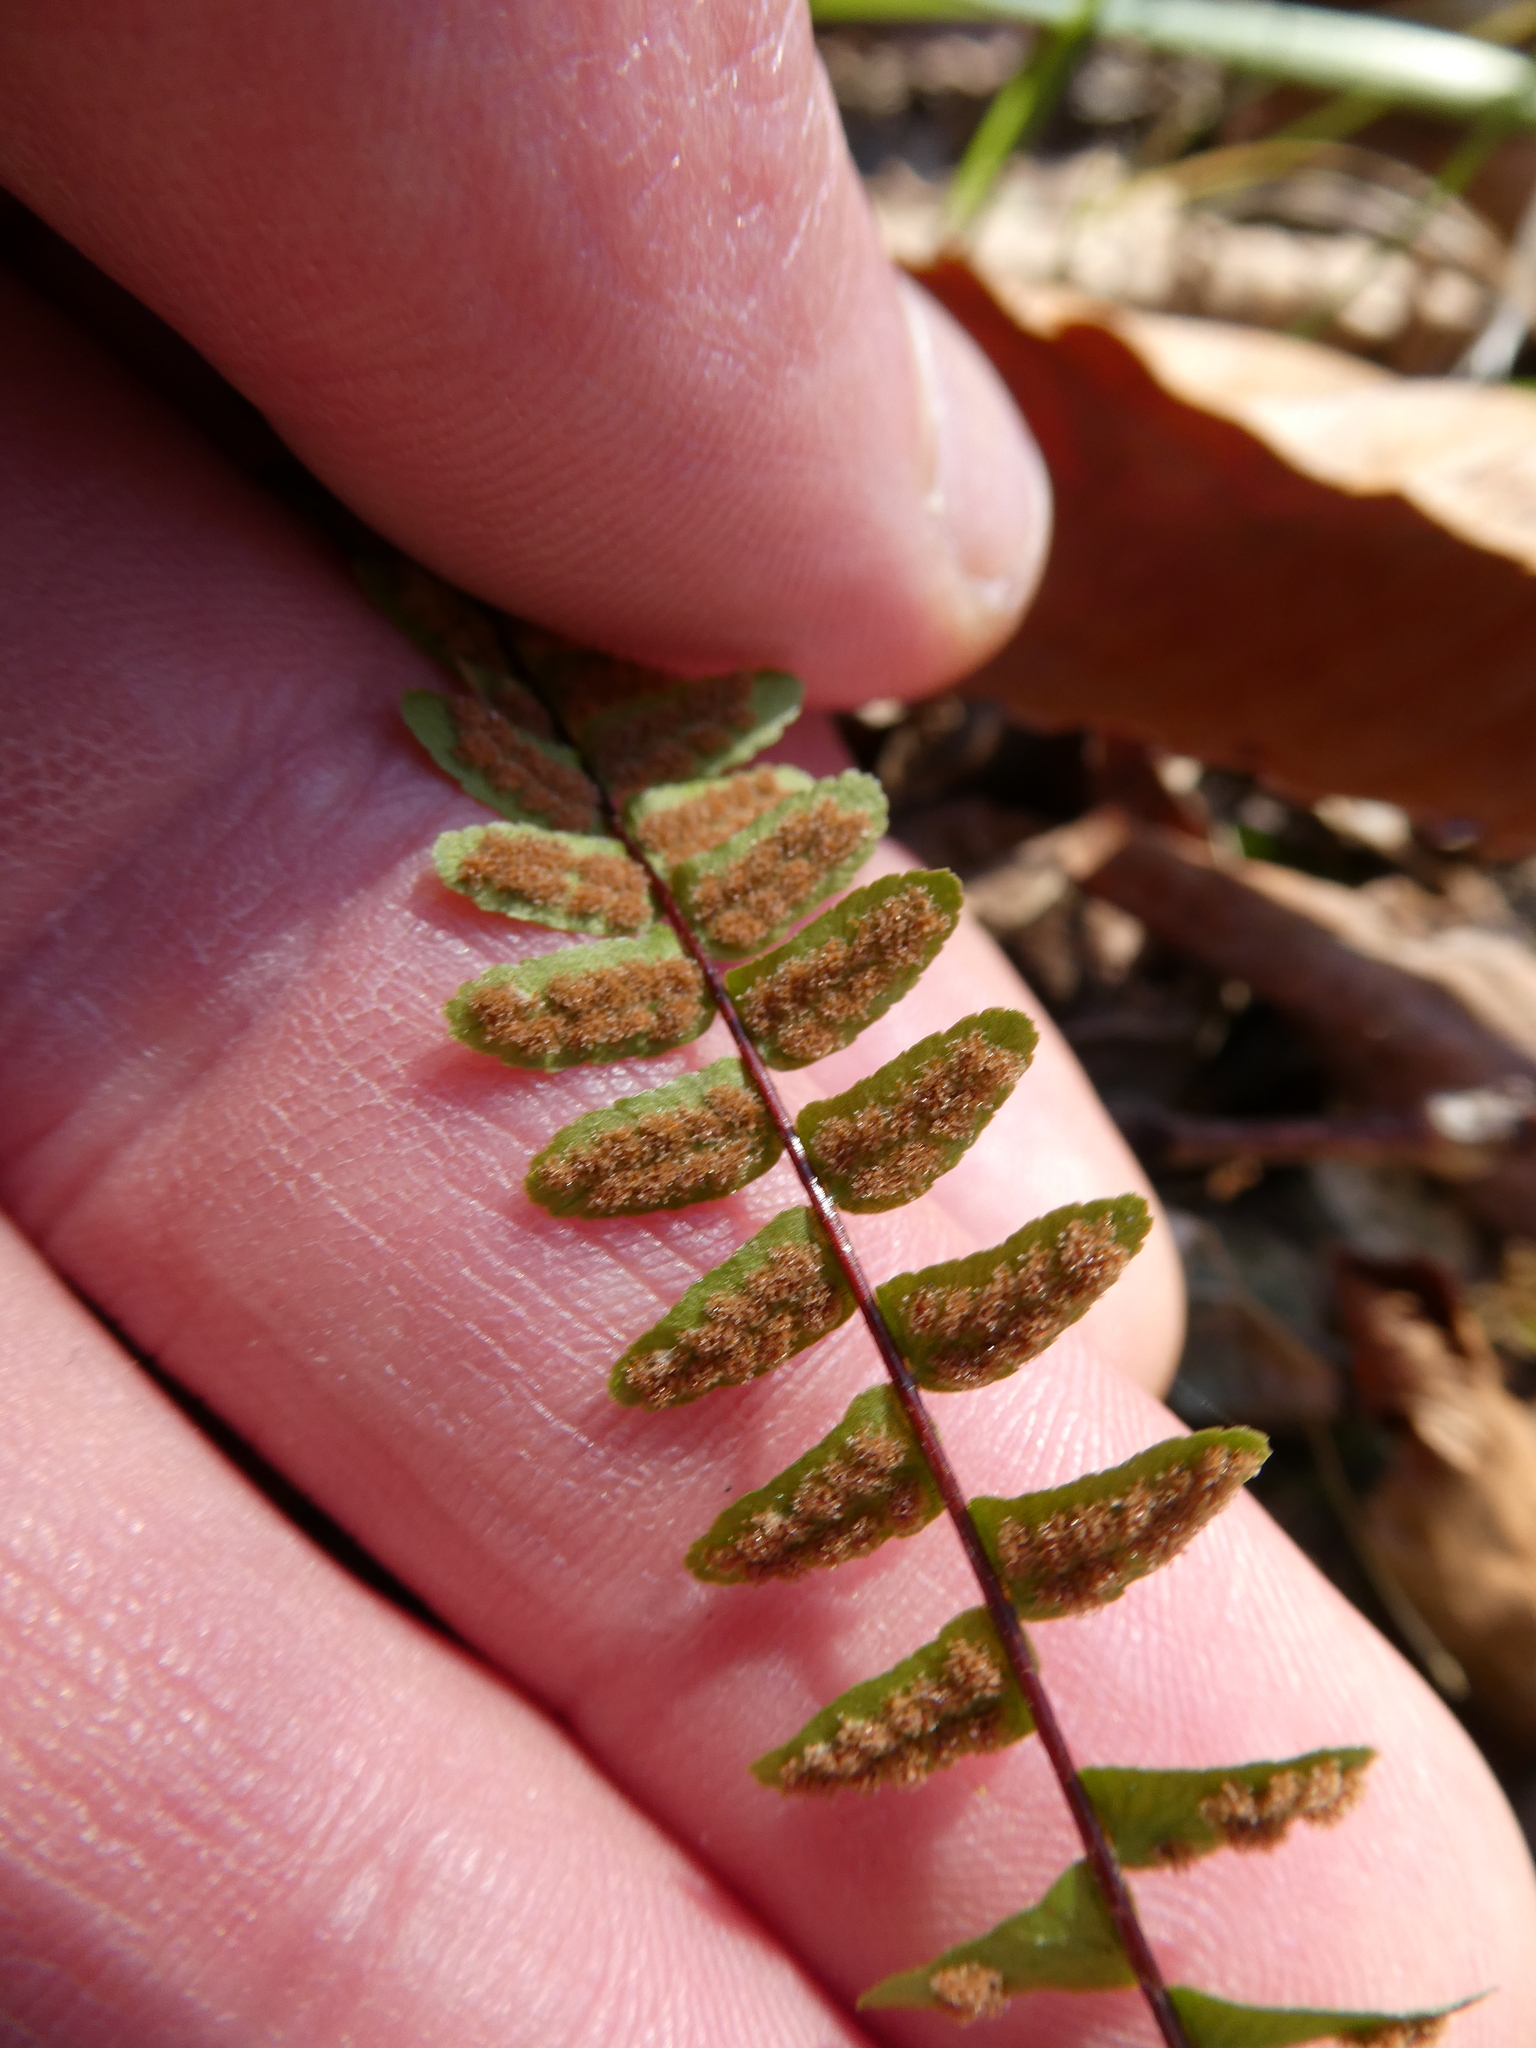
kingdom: Plantae
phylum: Tracheophyta
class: Polypodiopsida
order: Polypodiales
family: Aspleniaceae
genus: Asplenium
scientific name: Asplenium platyneuron
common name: Ebony spleenwort
